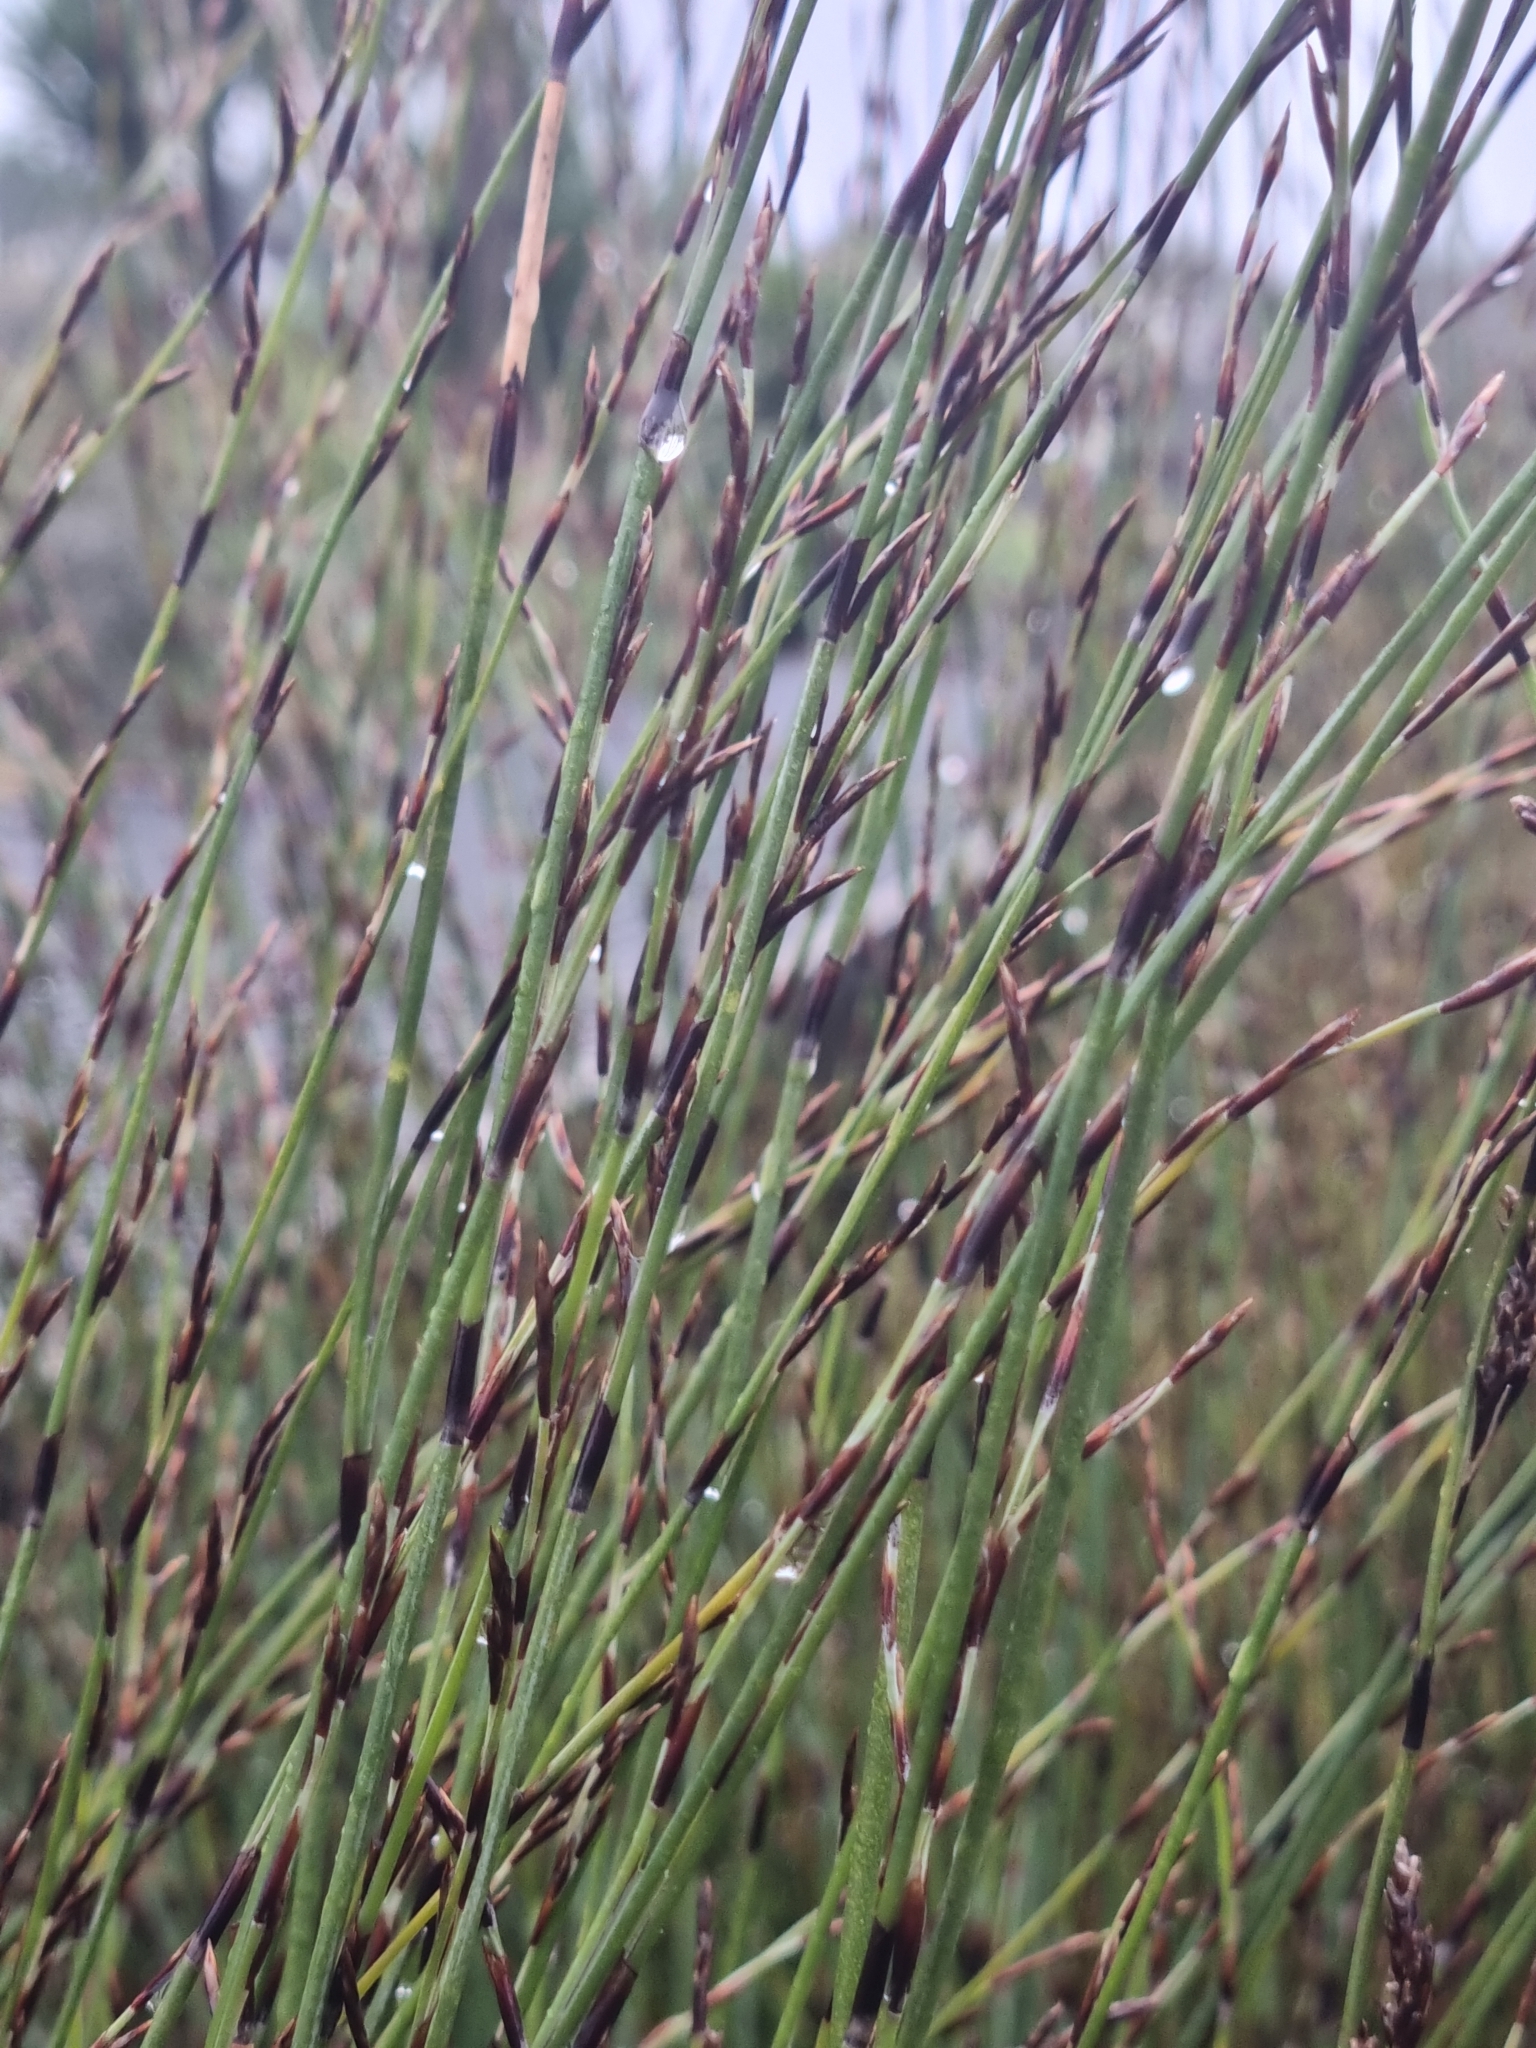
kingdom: Plantae
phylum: Tracheophyta
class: Liliopsida
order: Poales
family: Restionaceae
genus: Apodasmia
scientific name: Apodasmia similis
